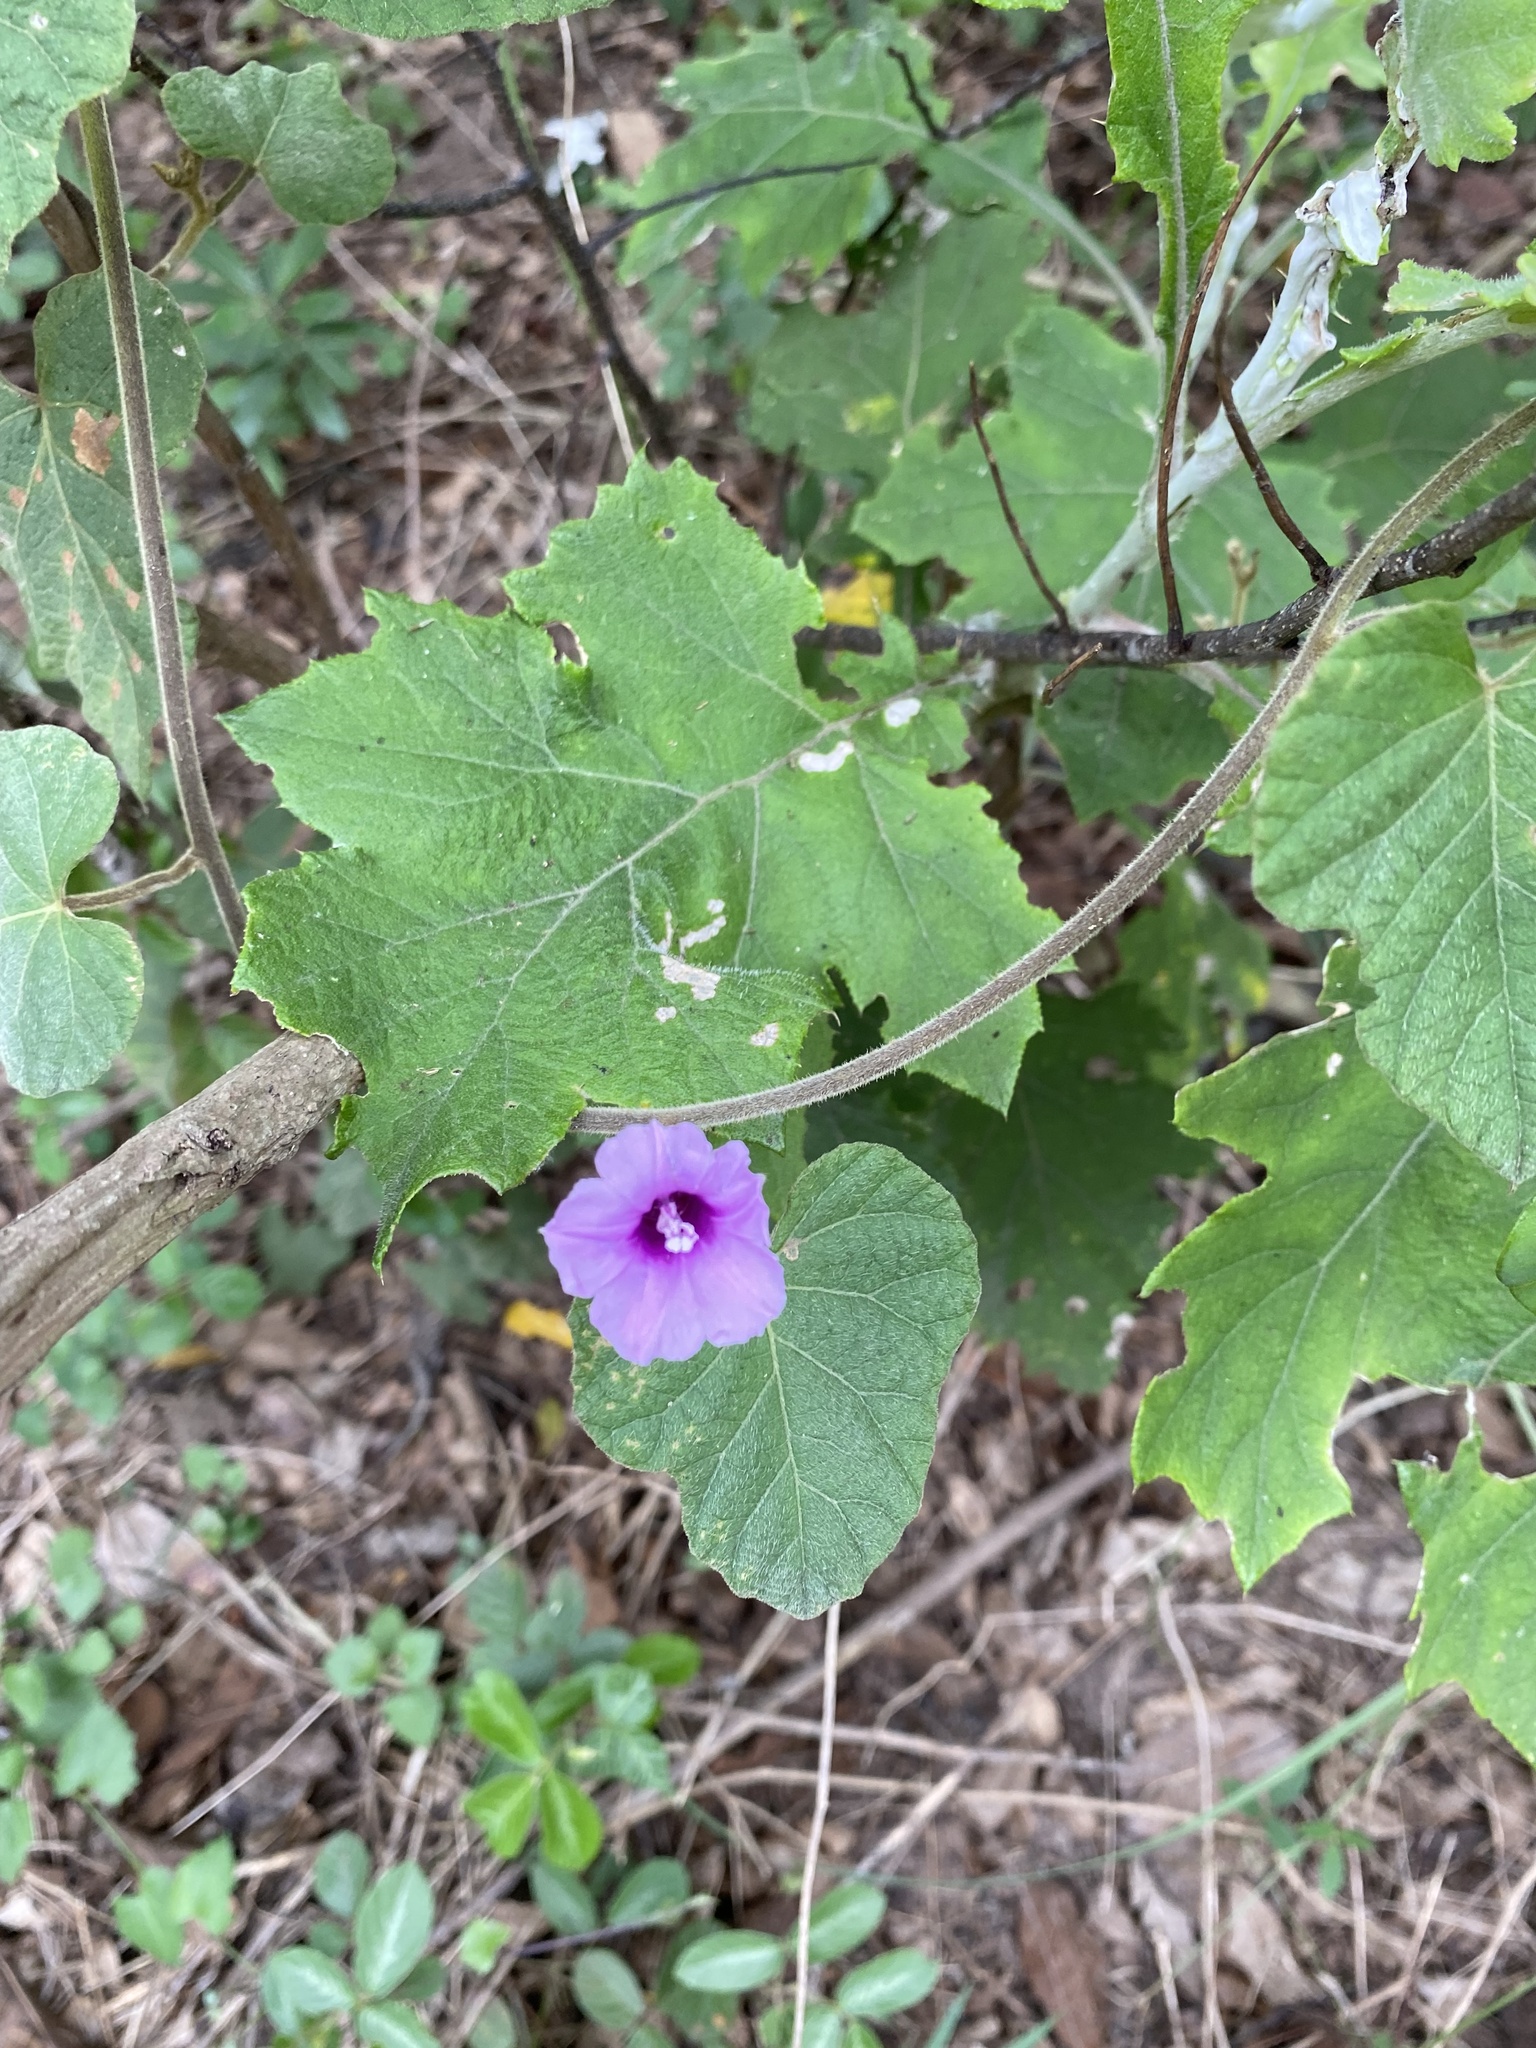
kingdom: Plantae
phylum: Tracheophyta
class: Magnoliopsida
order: Solanales
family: Convolvulaceae
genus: Ipomoea
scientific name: Ipomoea wightii
